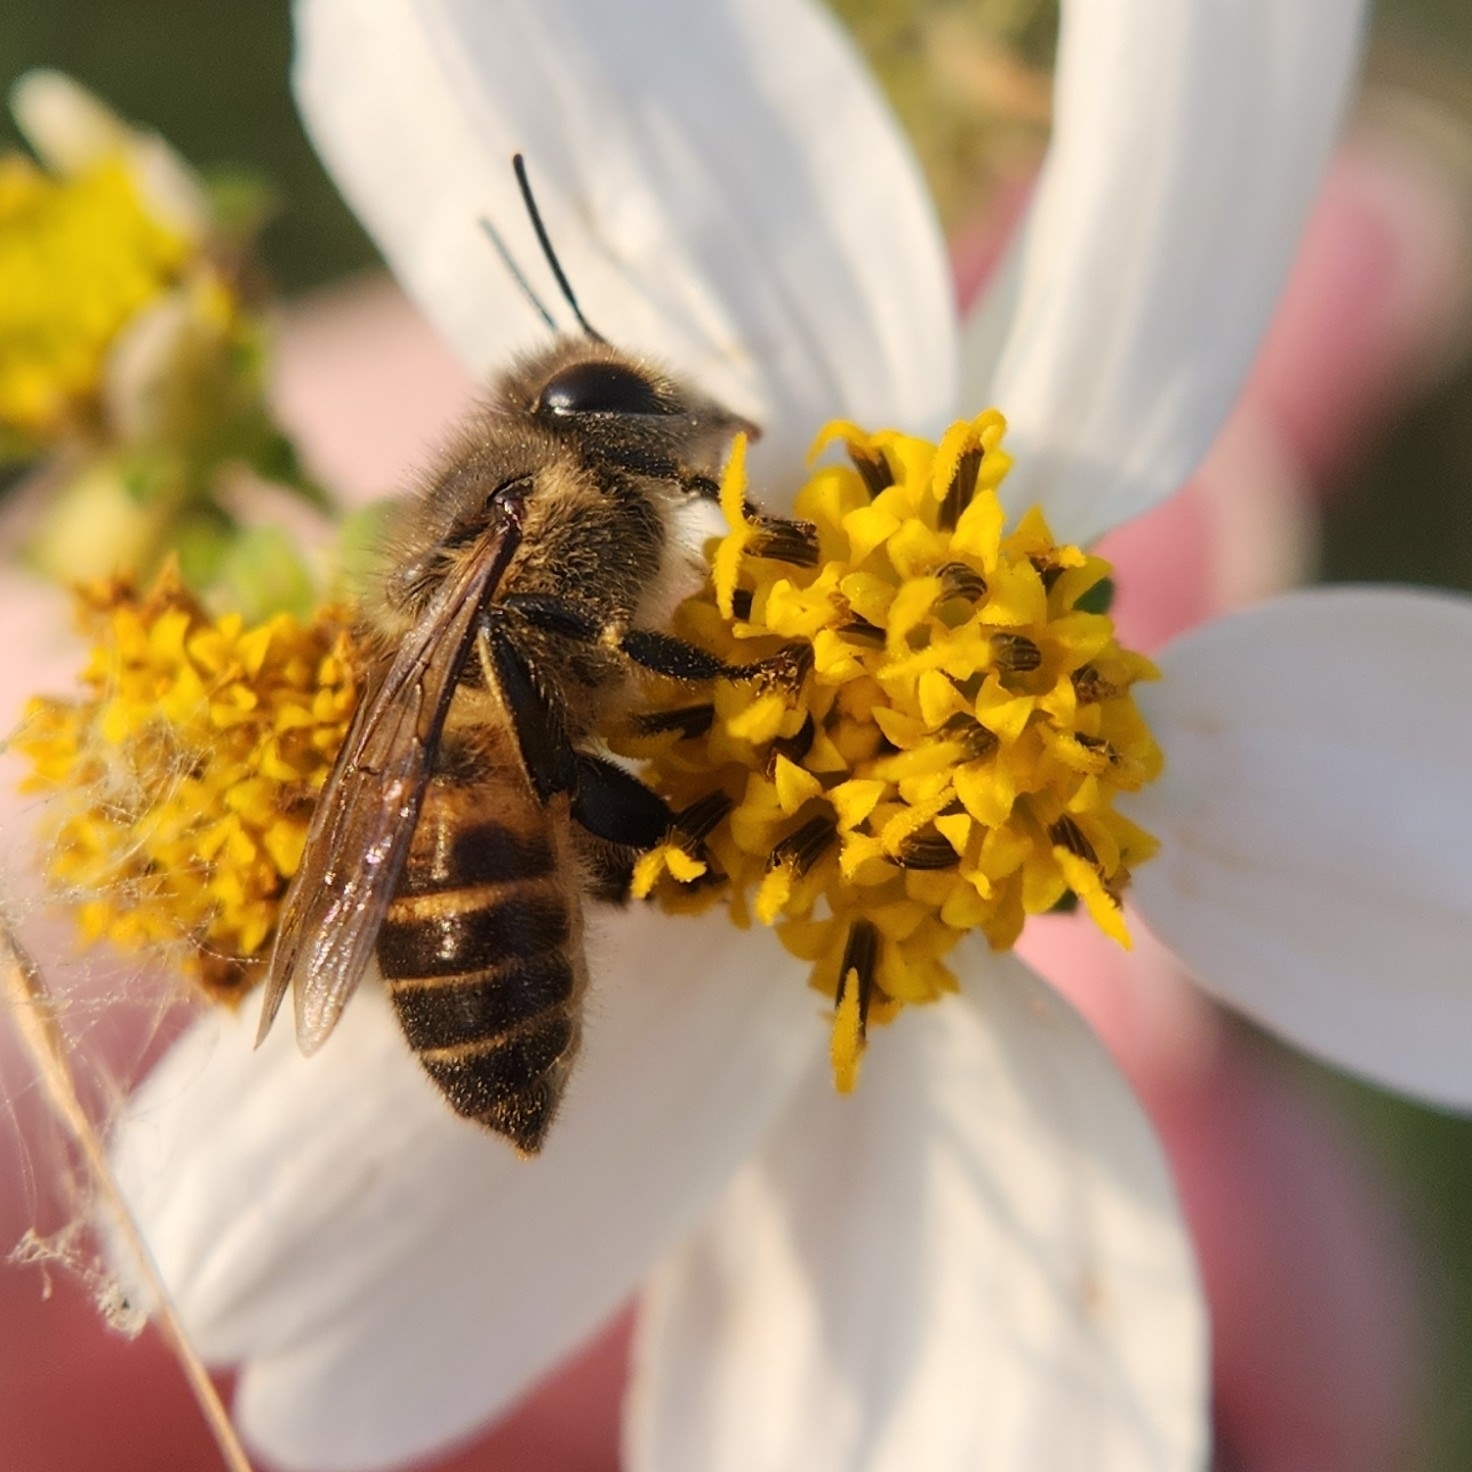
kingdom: Animalia
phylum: Arthropoda
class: Insecta
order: Hymenoptera
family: Apidae
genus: Apis
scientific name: Apis cerana
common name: Honey bee
